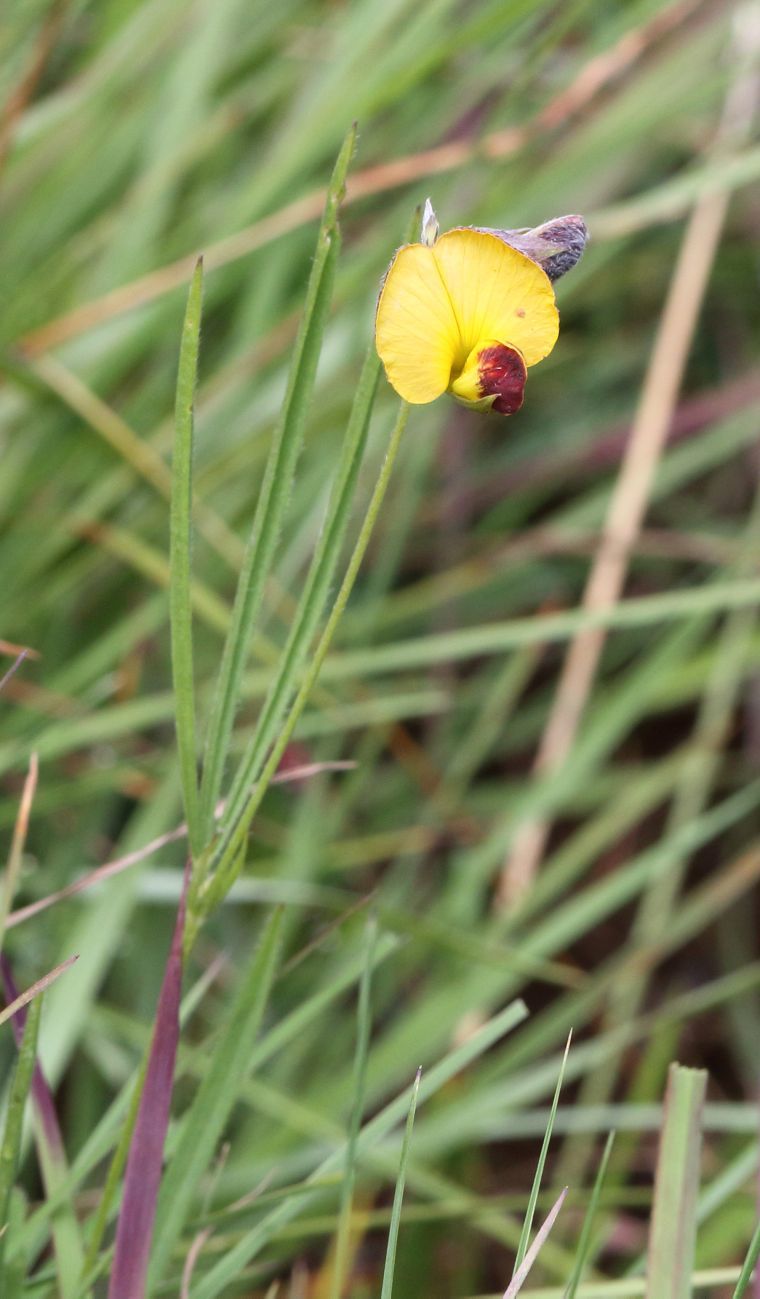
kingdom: Plantae
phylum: Tracheophyta
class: Magnoliopsida
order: Fabales
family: Fabaceae
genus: Argyrolobium
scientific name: Argyrolobium tuberosum
